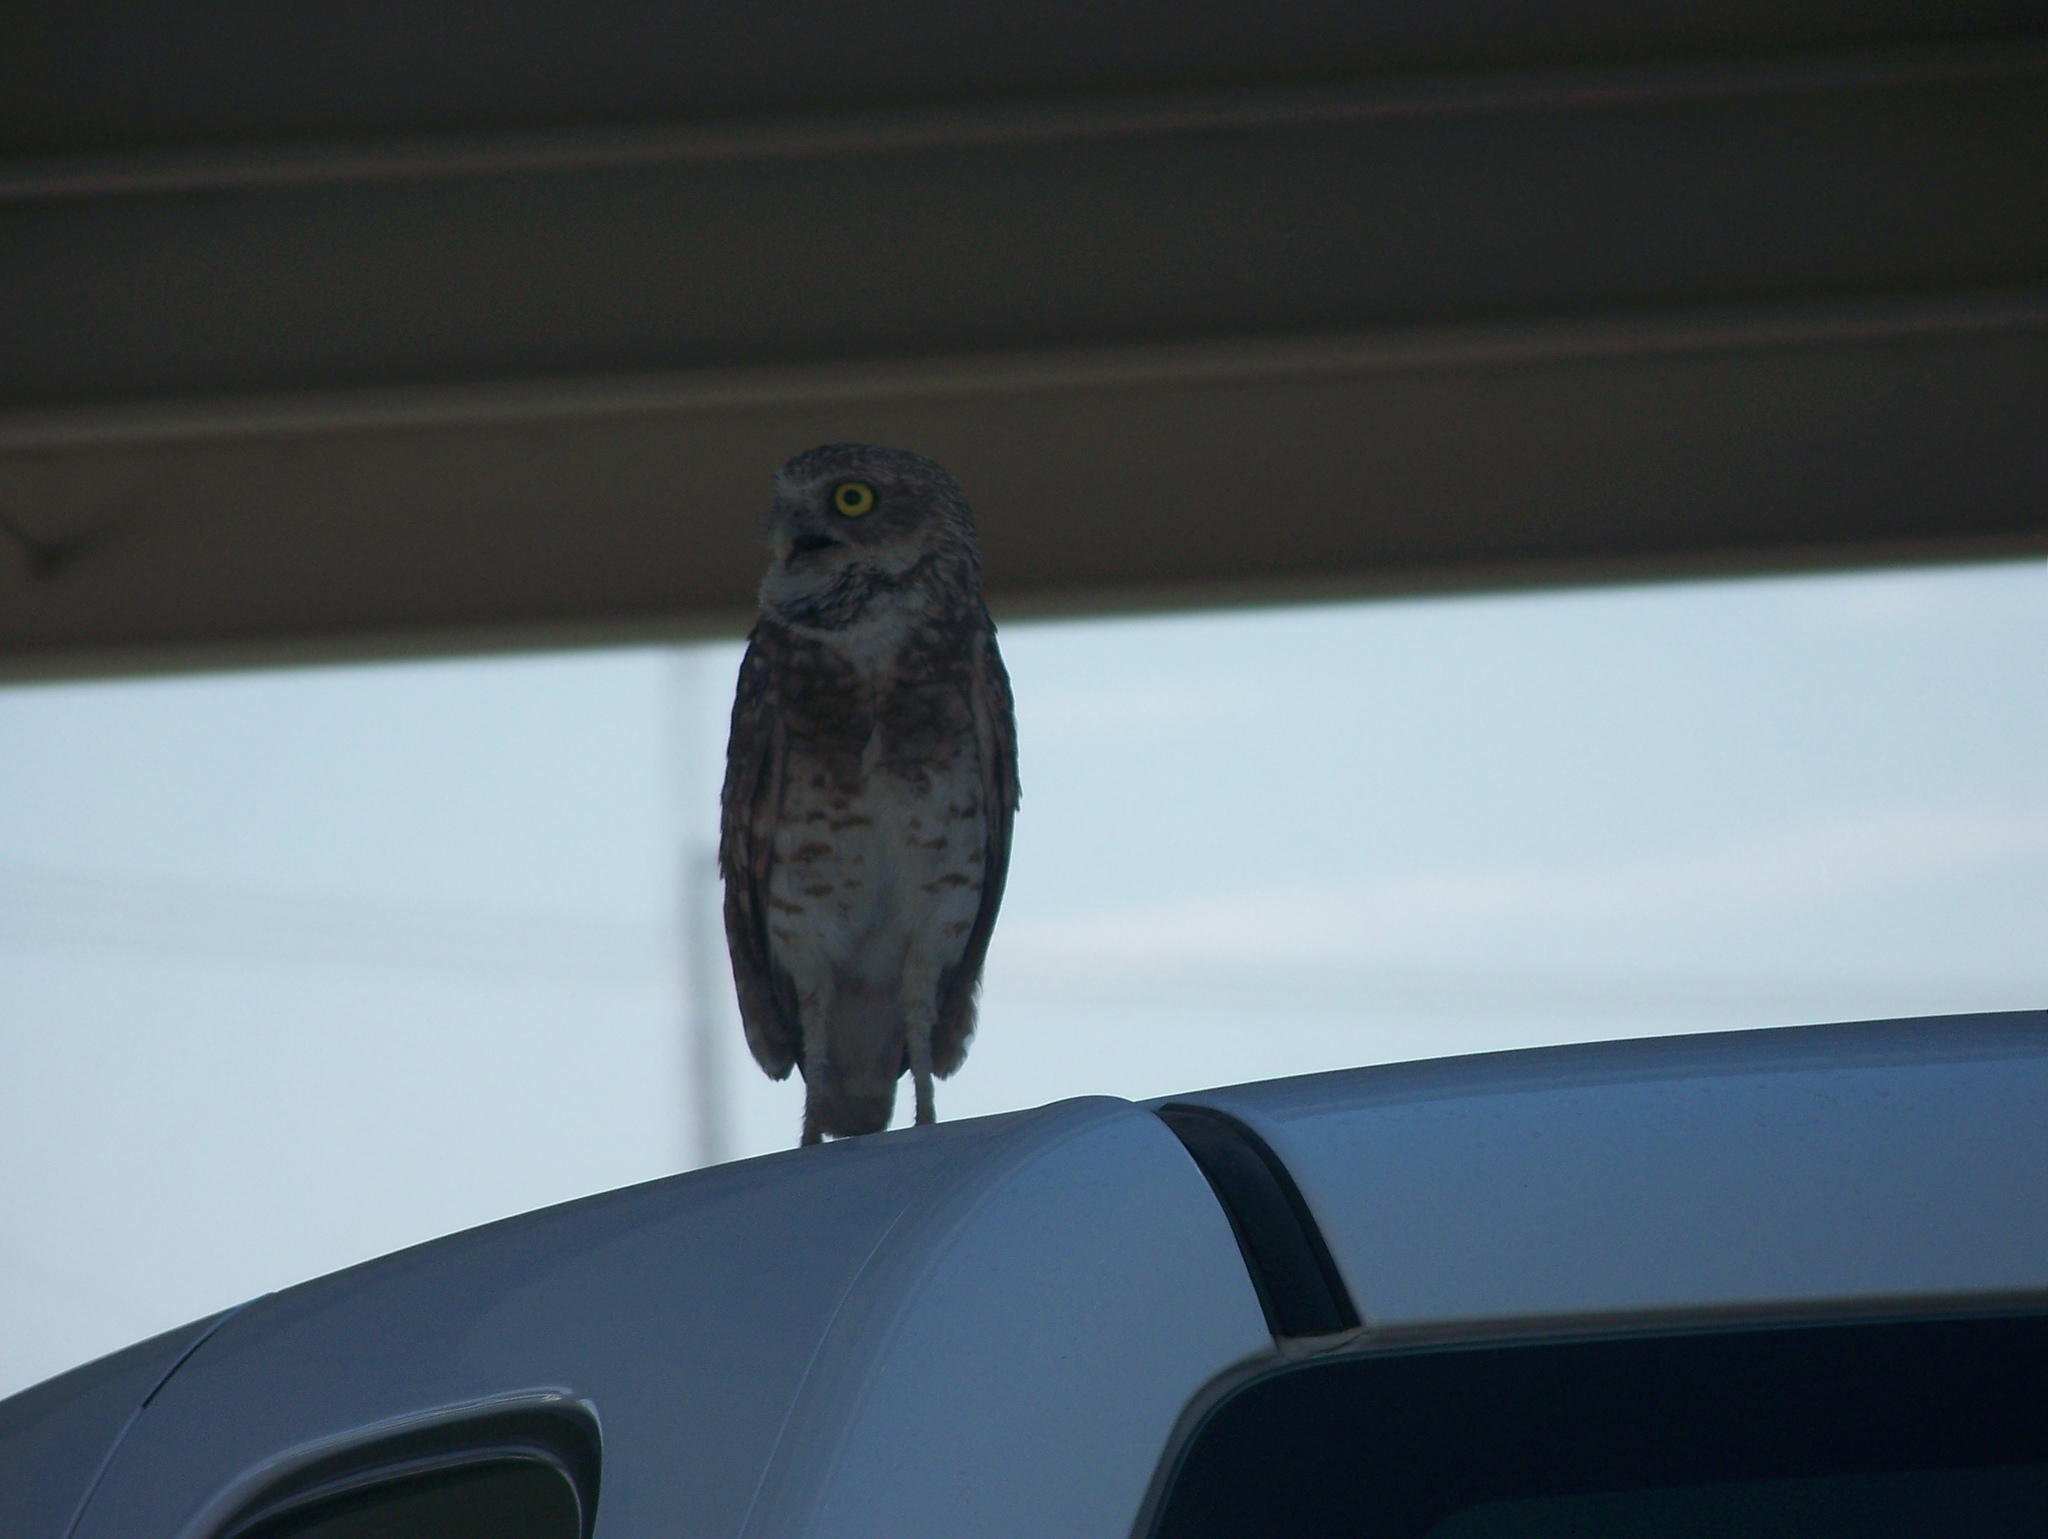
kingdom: Animalia
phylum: Chordata
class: Aves
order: Strigiformes
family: Strigidae
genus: Athene
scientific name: Athene cunicularia
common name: Burrowing owl
